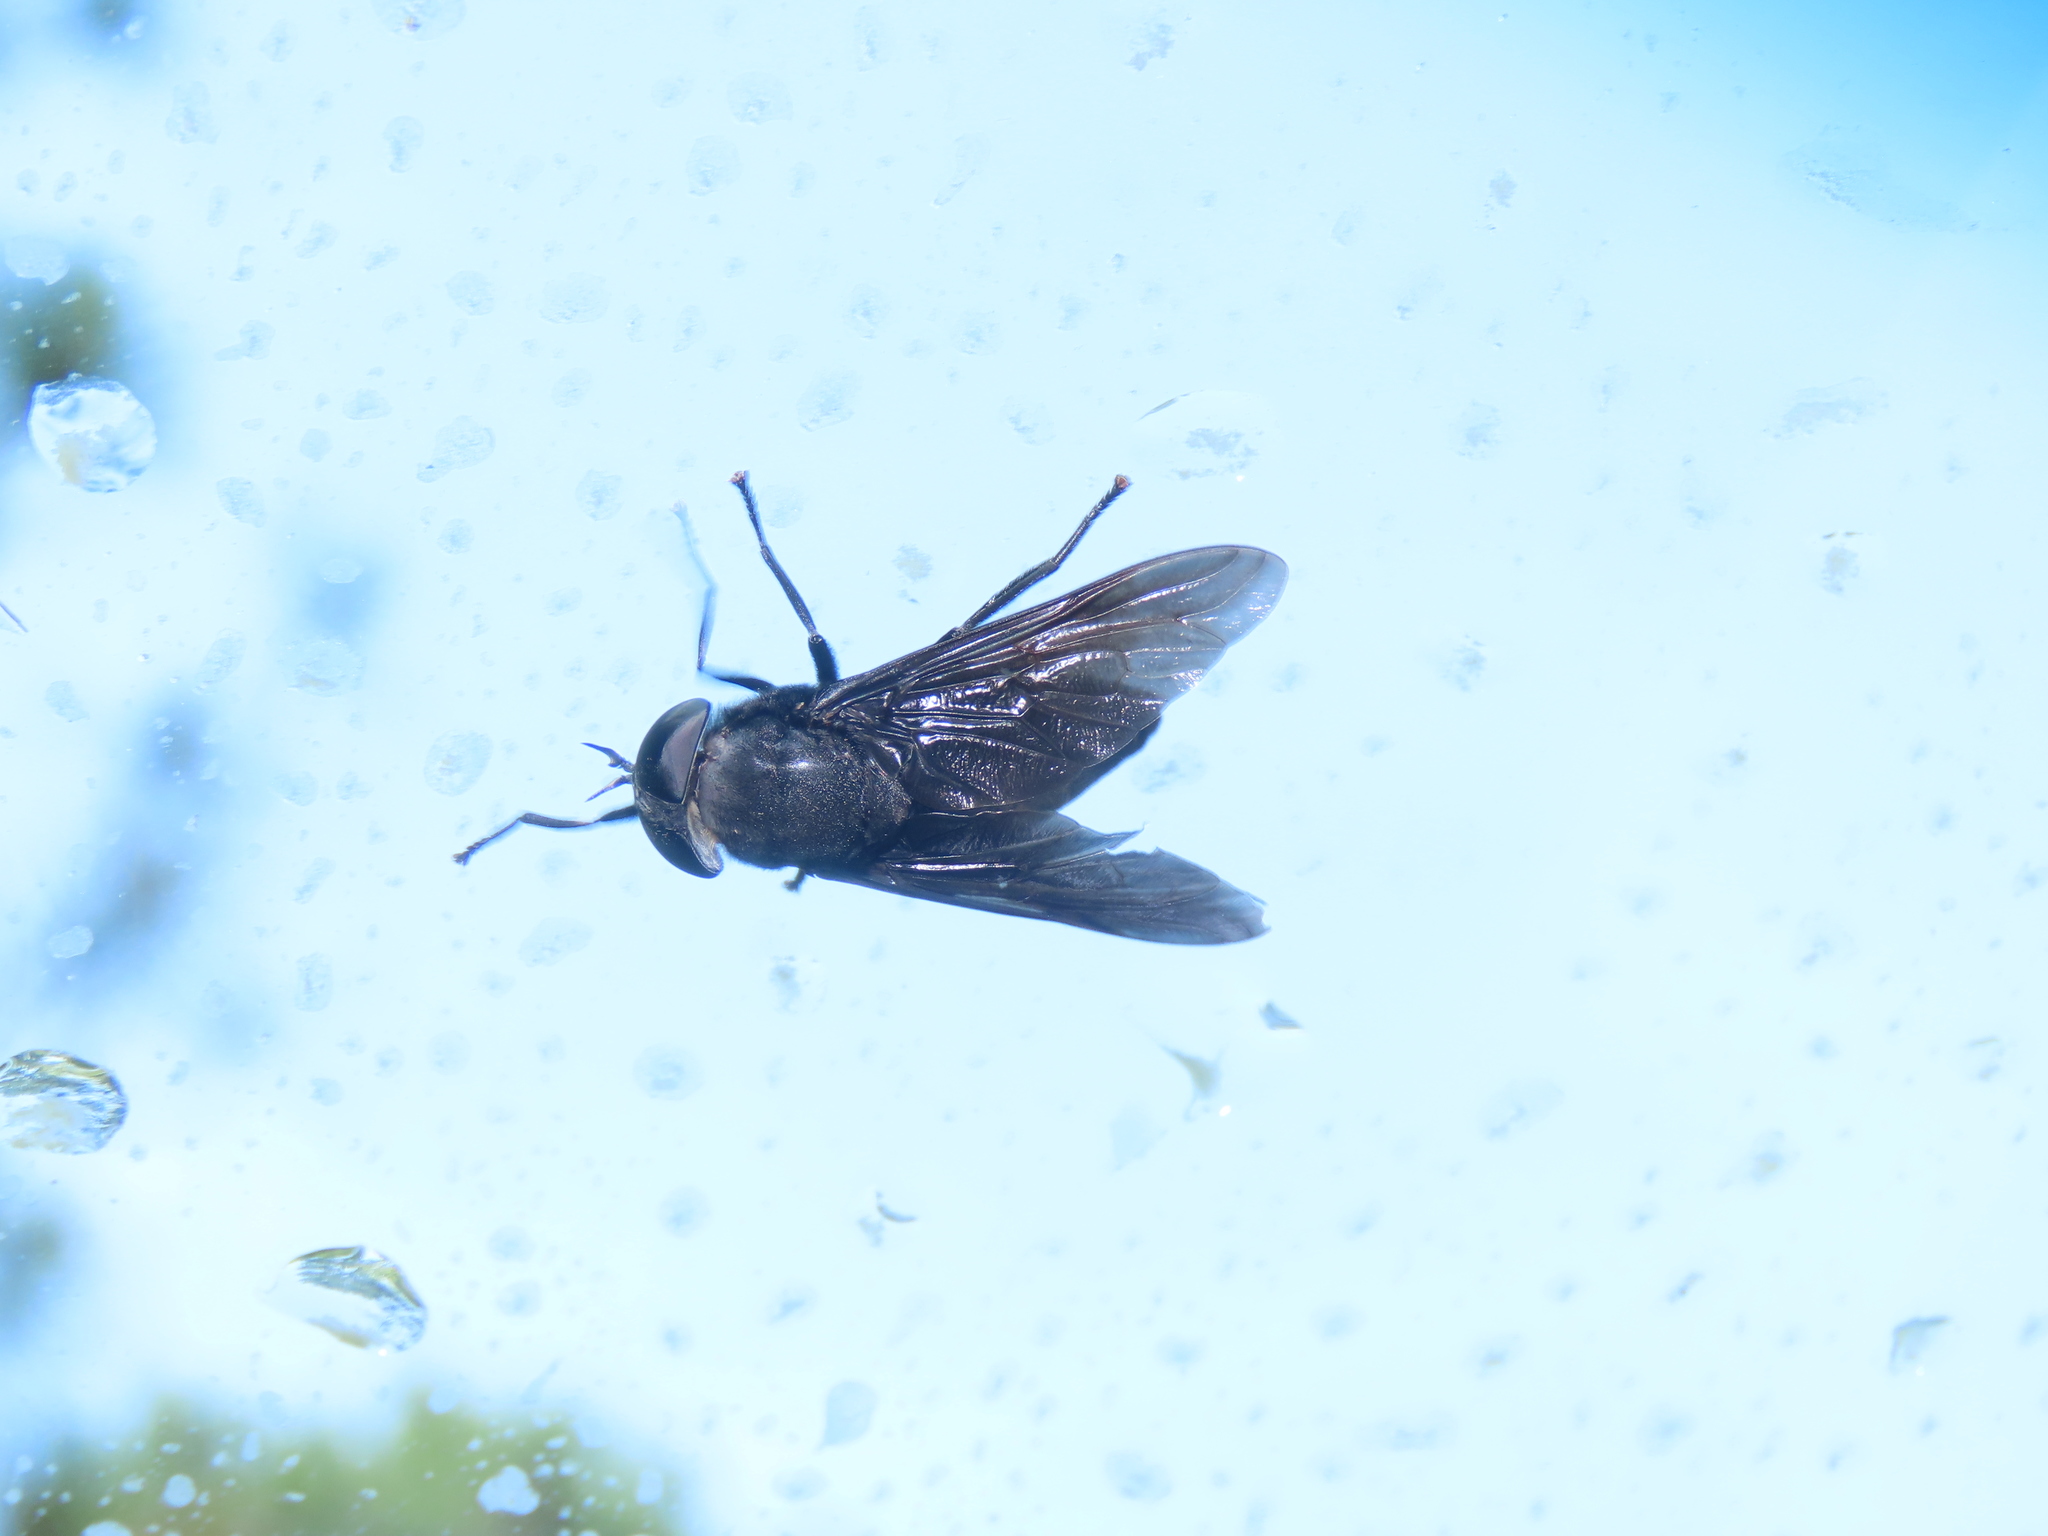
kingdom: Animalia
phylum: Arthropoda
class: Insecta
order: Diptera
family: Tabanidae
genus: Tabanus
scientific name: Tabanus atratus
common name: Black horse fly
